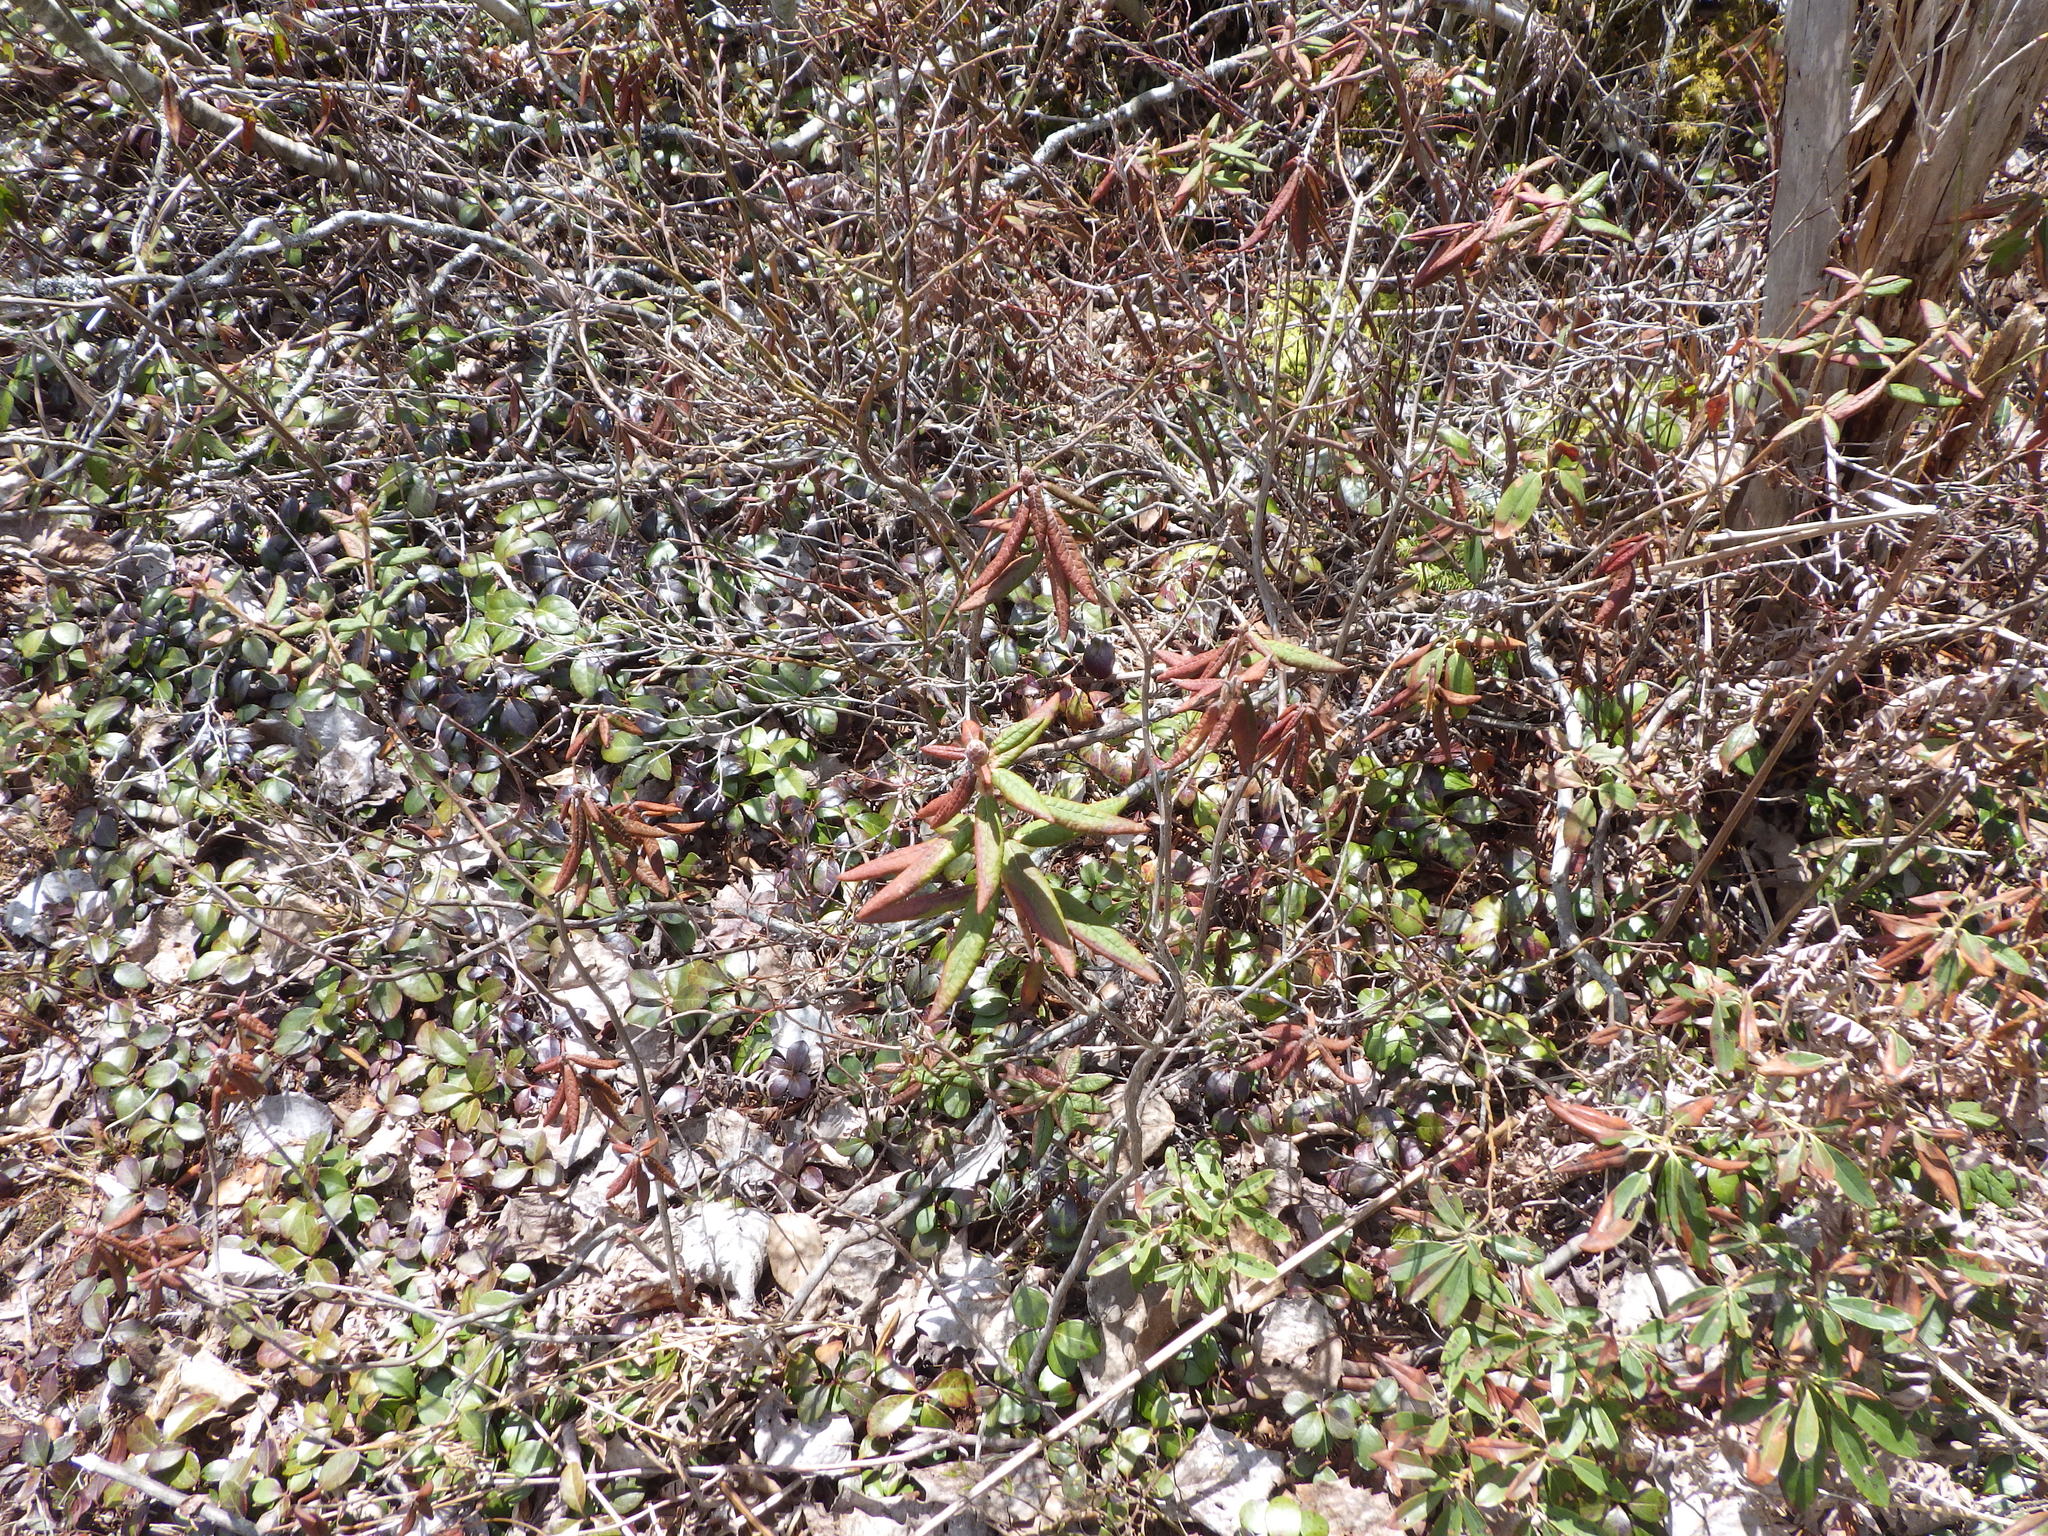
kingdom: Plantae
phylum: Tracheophyta
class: Magnoliopsida
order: Ericales
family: Ericaceae
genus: Rhododendron
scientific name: Rhododendron groenlandicum
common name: Bog labrador tea
